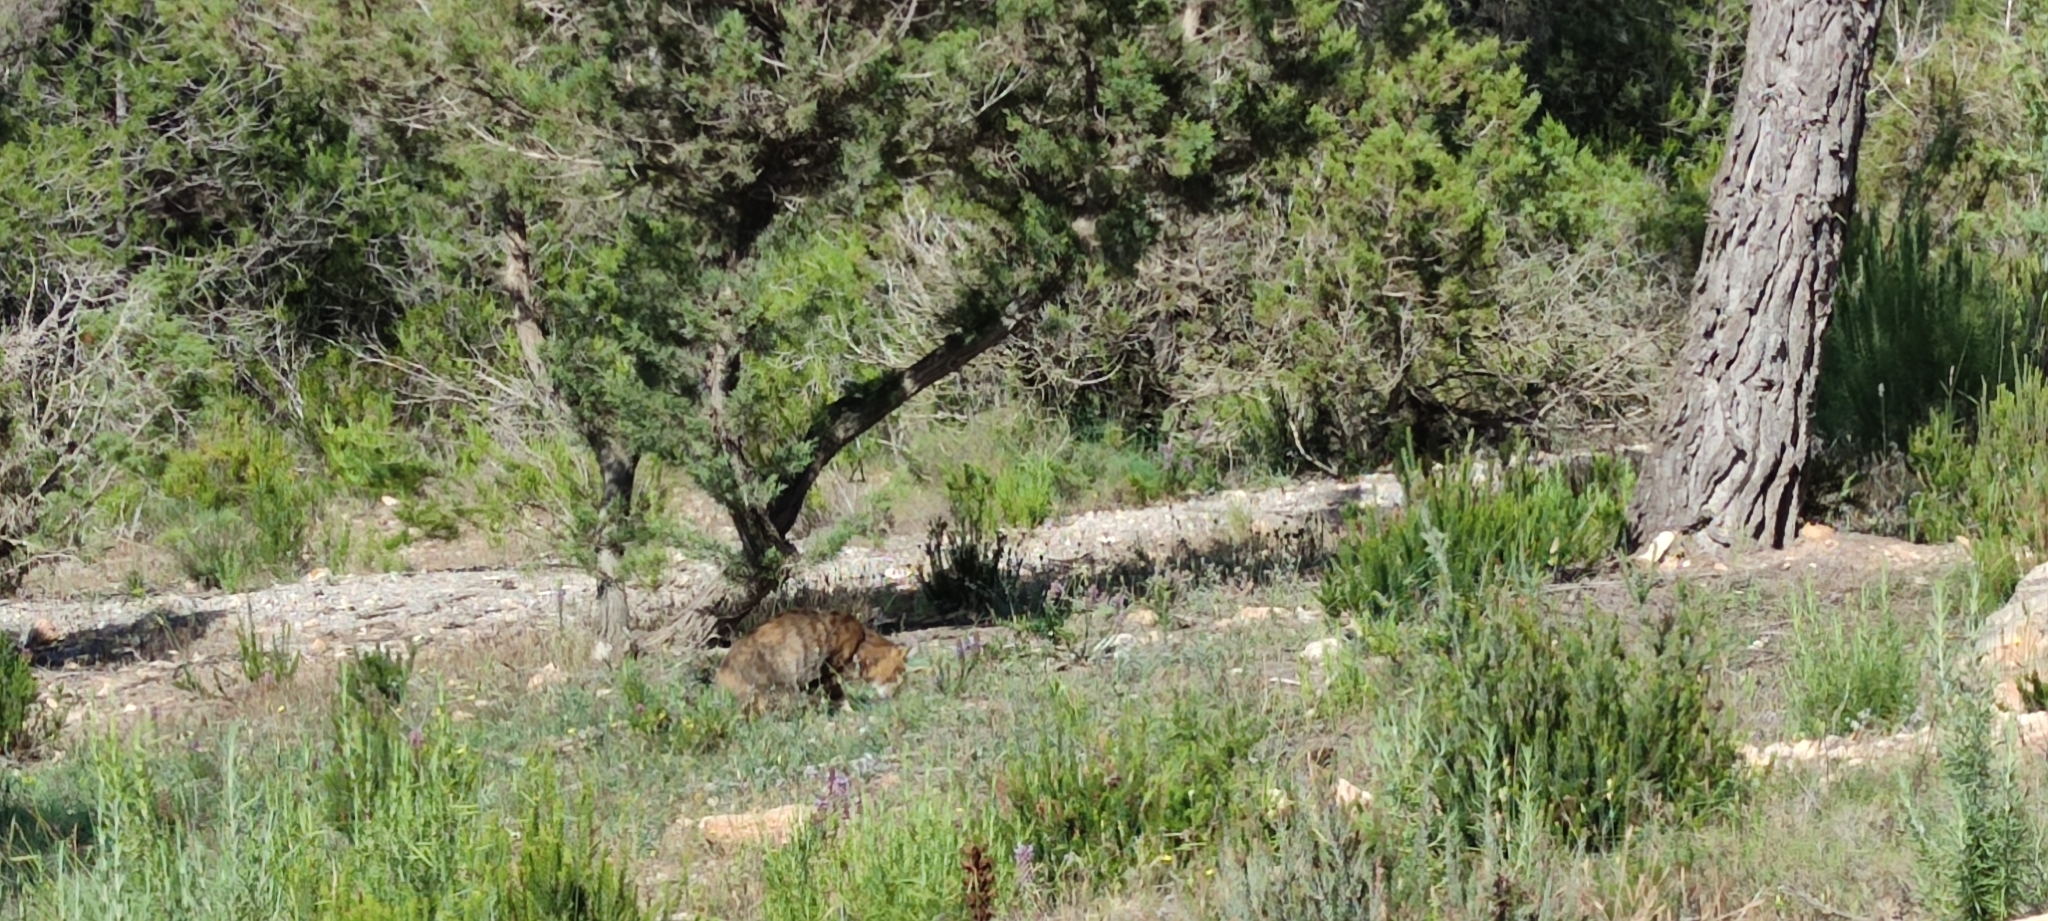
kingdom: Animalia
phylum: Chordata
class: Mammalia
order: Carnivora
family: Felidae
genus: Felis
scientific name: Felis catus
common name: Domestic cat
